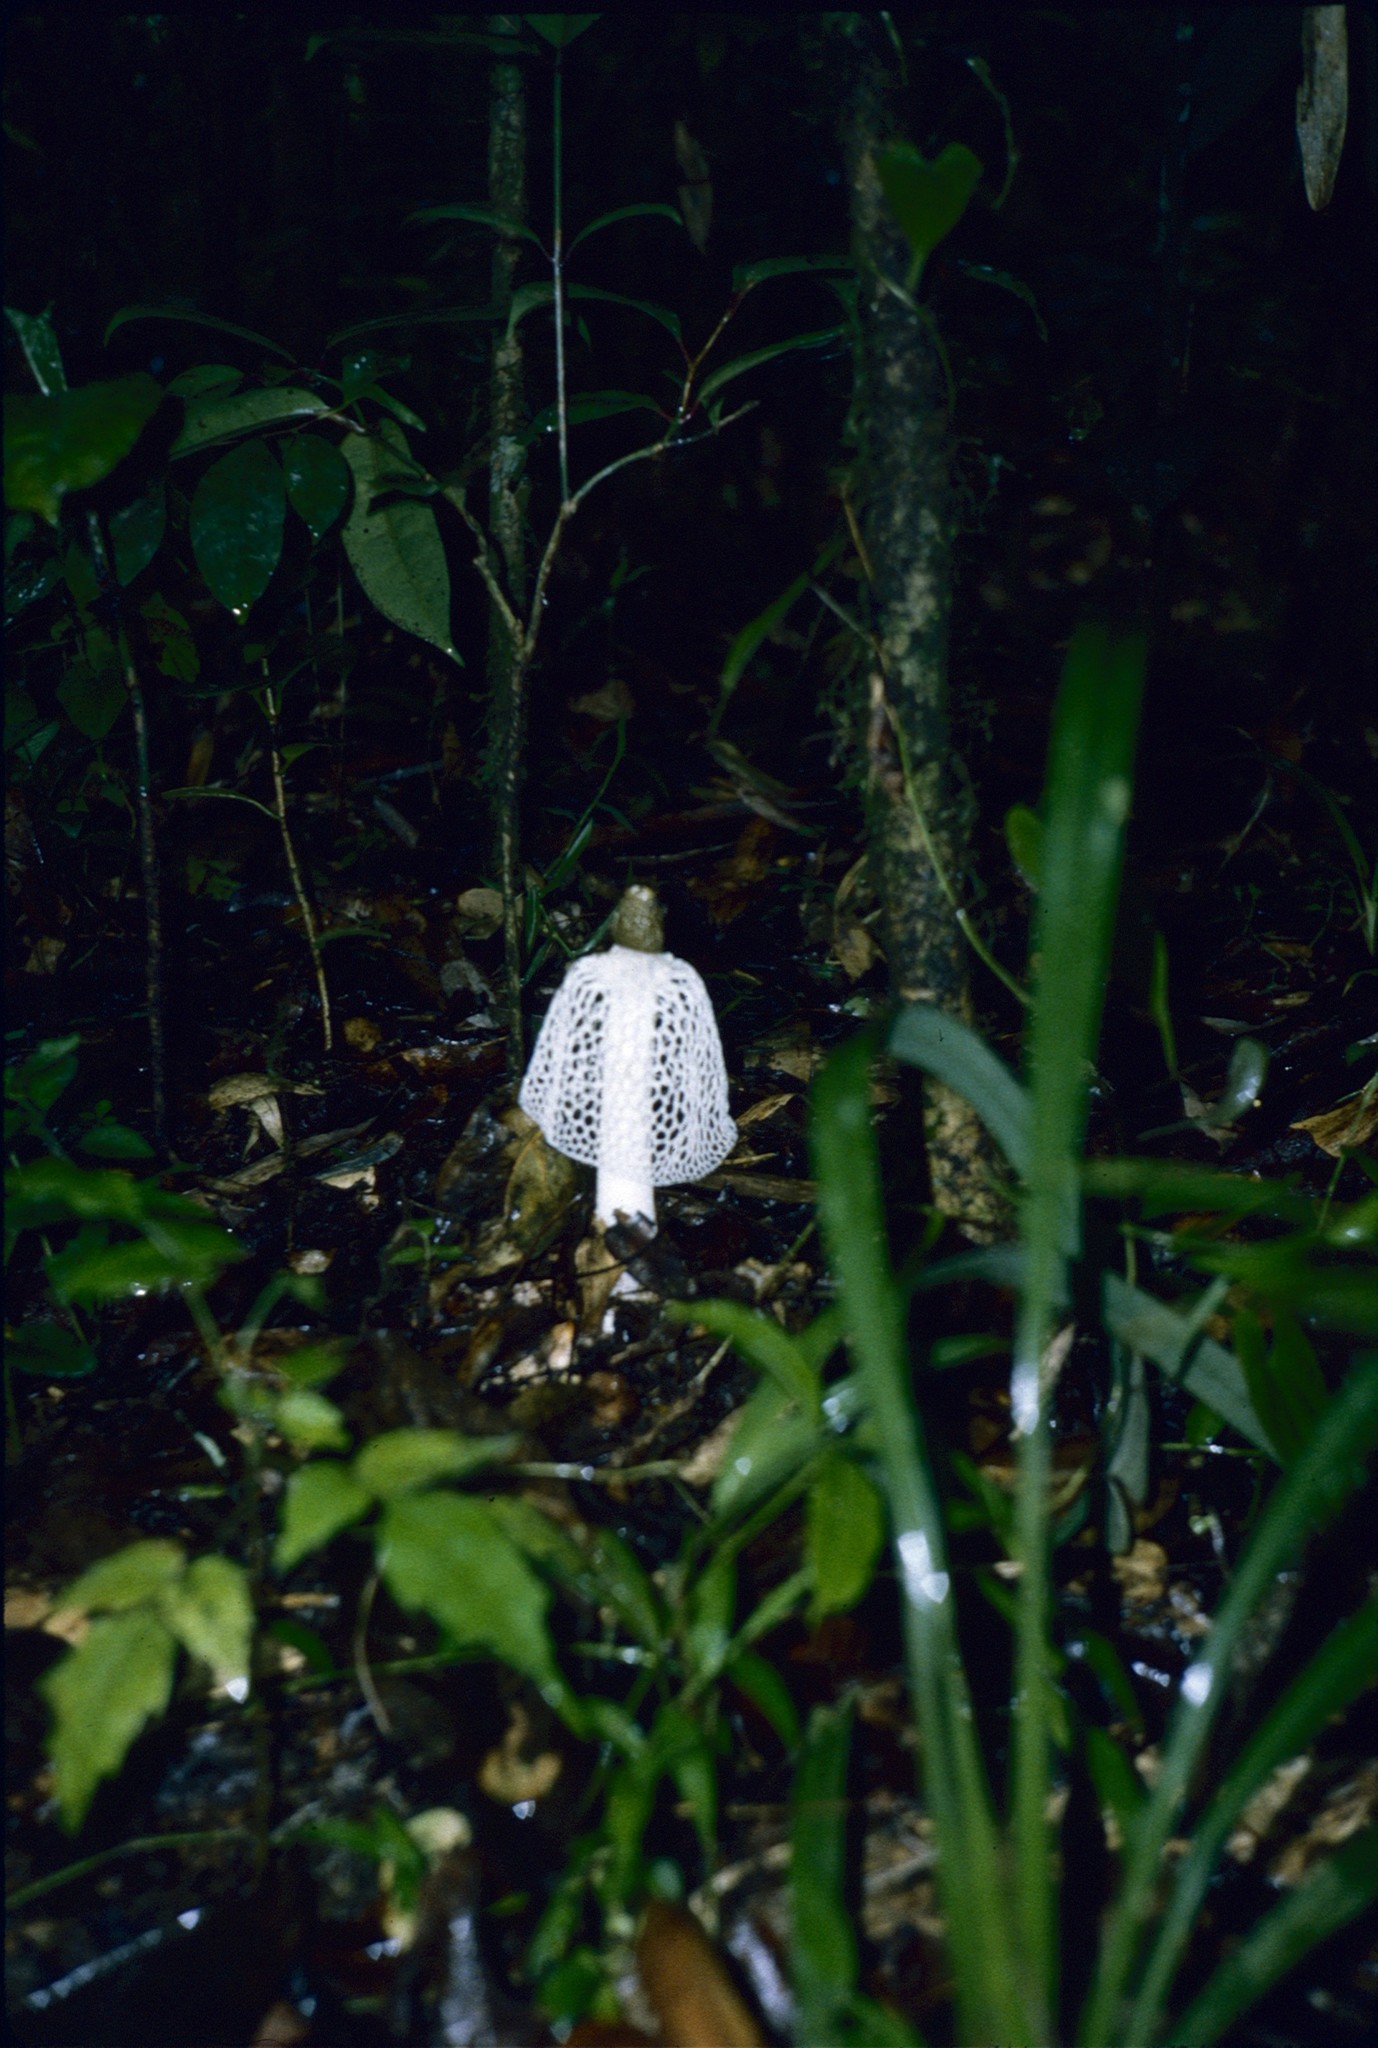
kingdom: Fungi
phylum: Basidiomycota
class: Agaricomycetes
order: Phallales
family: Phallaceae
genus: Phallus
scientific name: Phallus indusiatus
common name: Bridal veil stinkhorn
